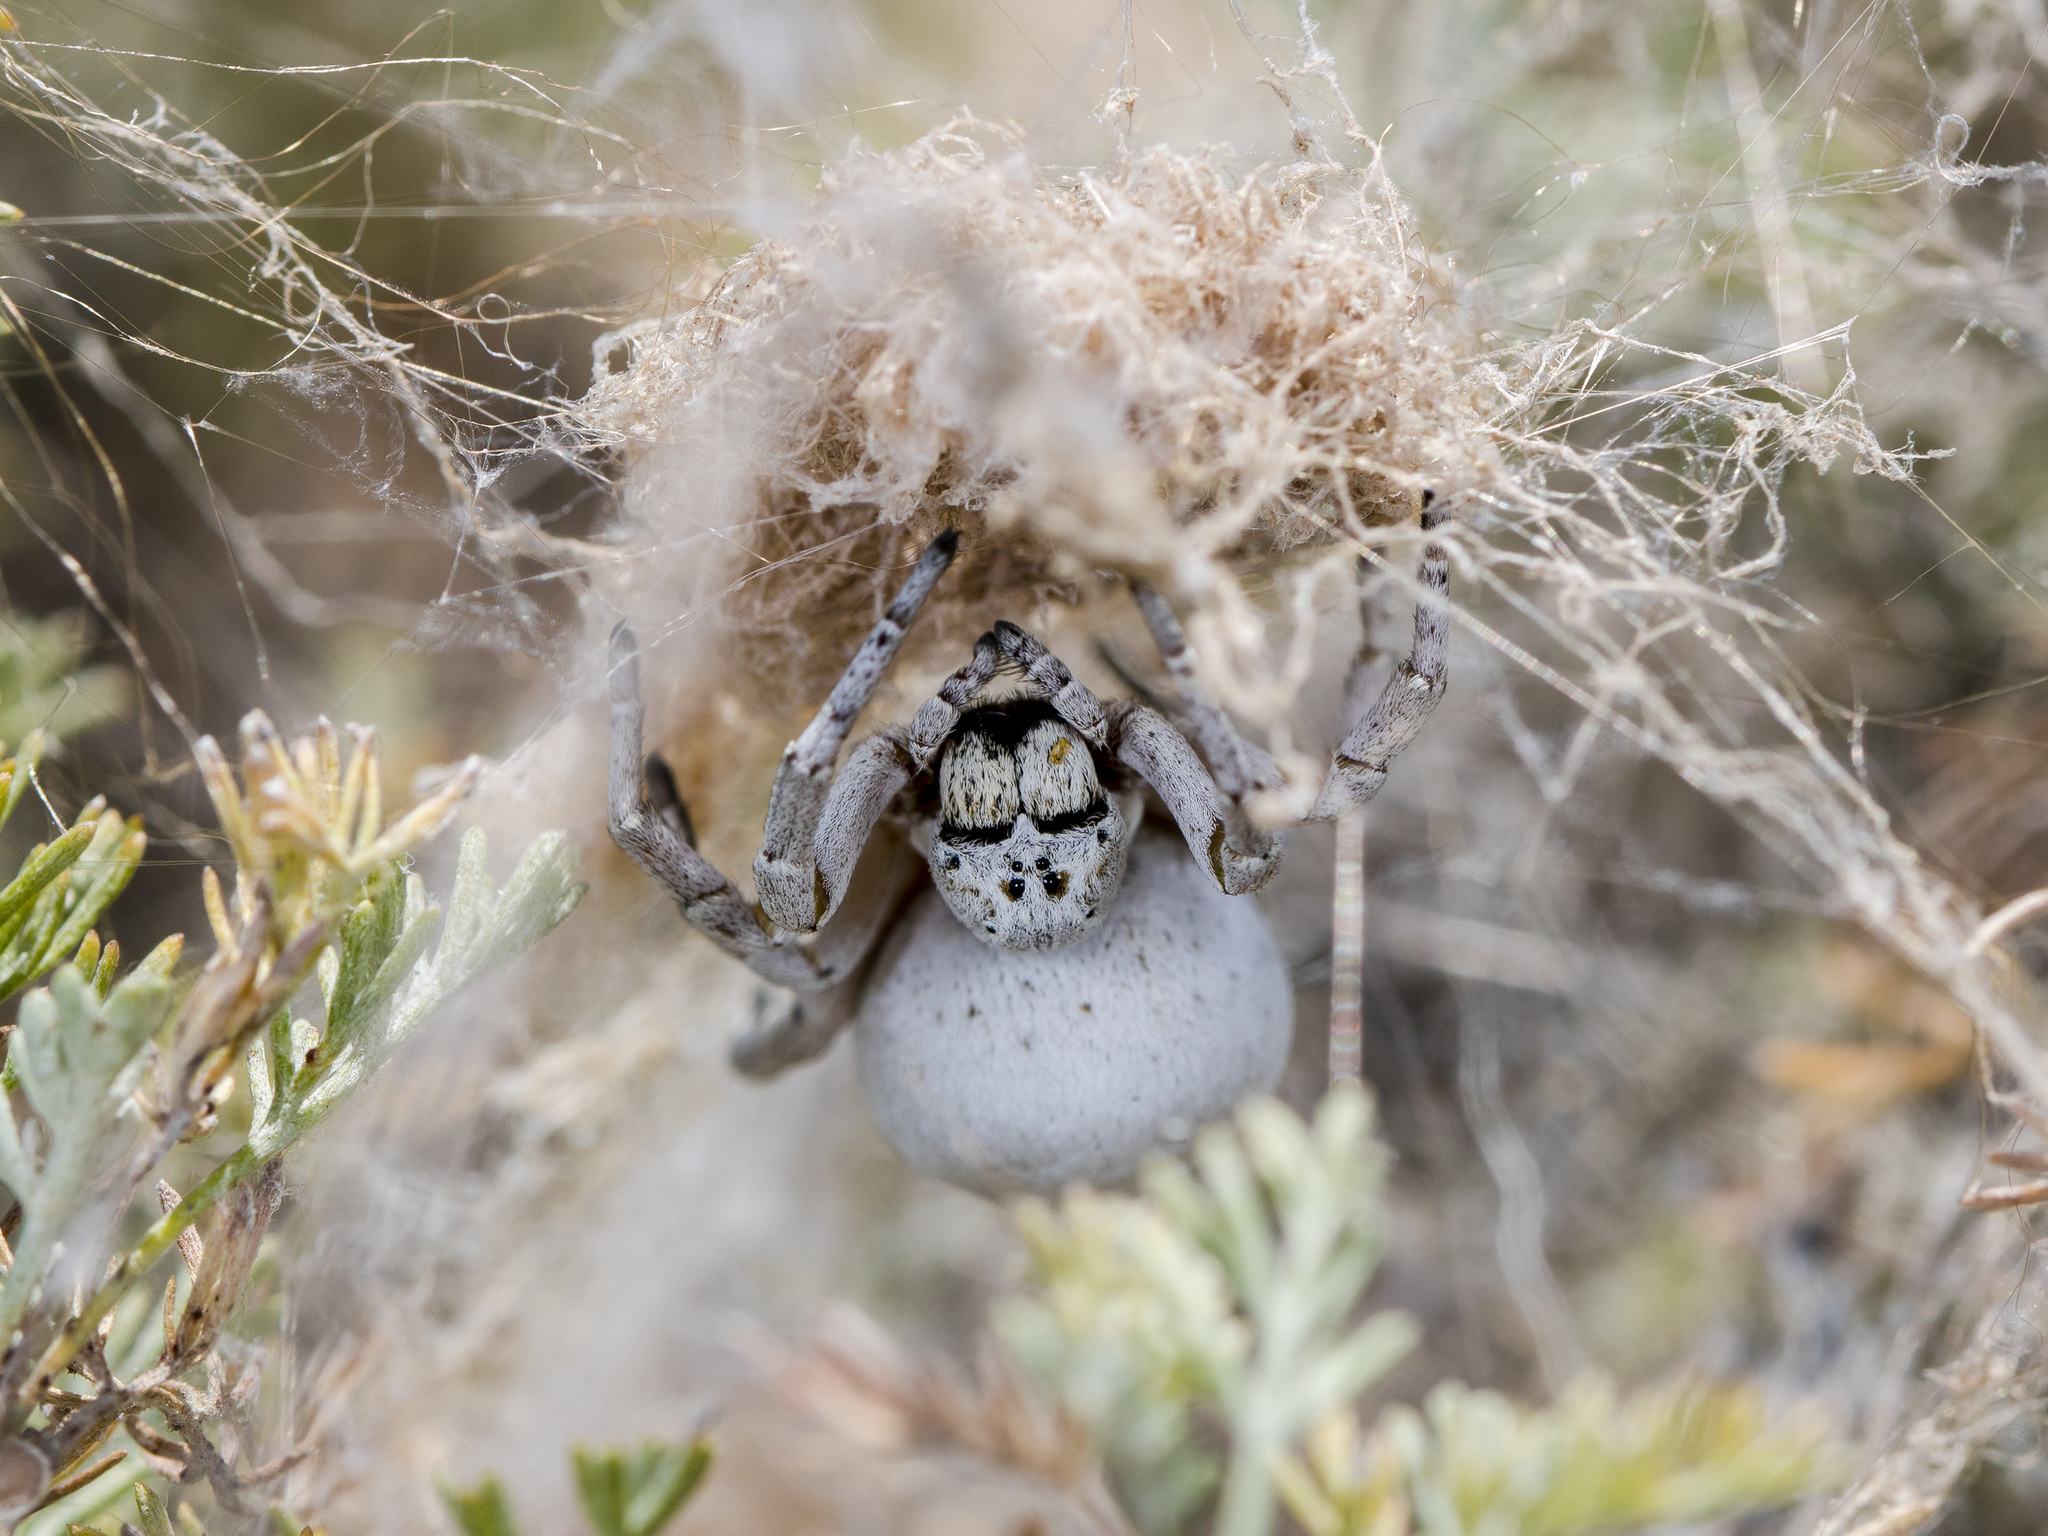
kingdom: Animalia
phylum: Arthropoda
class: Arachnida
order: Araneae
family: Eresidae
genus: Stegodyphus
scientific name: Stegodyphus lineatus
